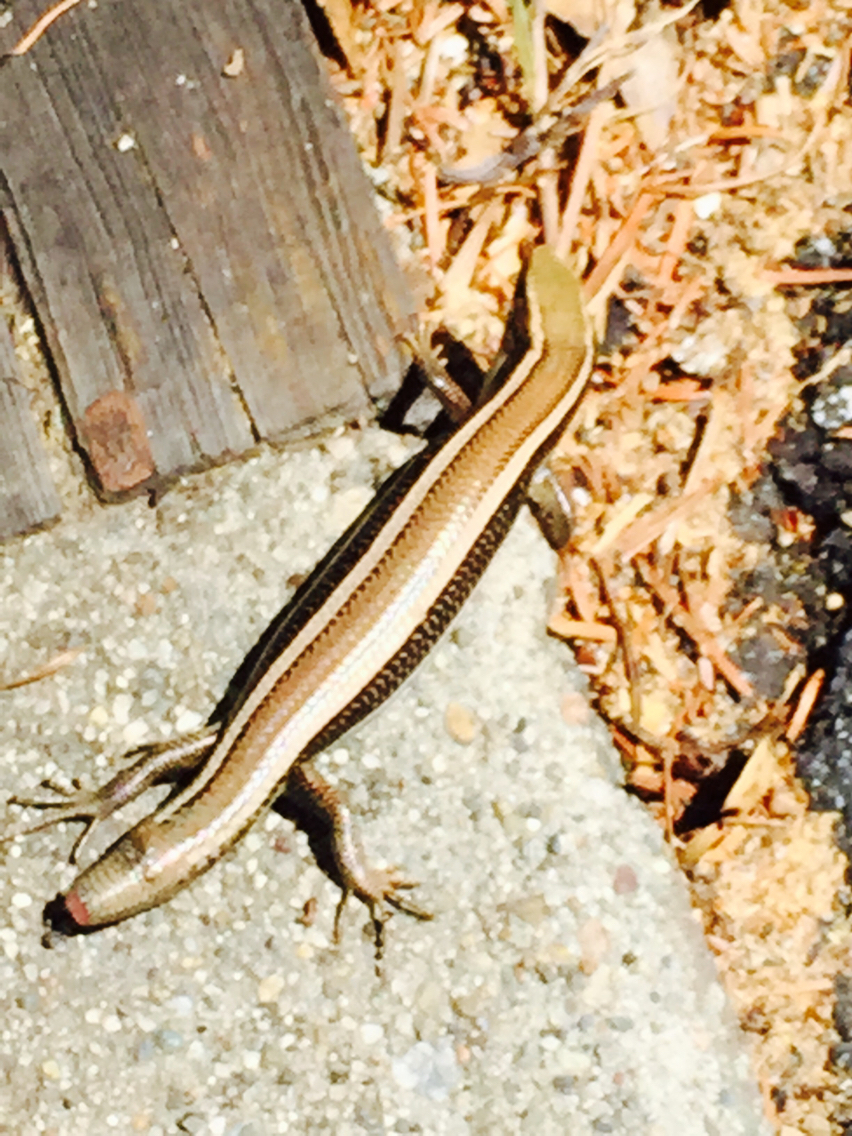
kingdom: Animalia
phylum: Chordata
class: Squamata
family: Scincidae
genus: Plestiodon
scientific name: Plestiodon skiltonianus
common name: Coronado island skink [interparietalis]
